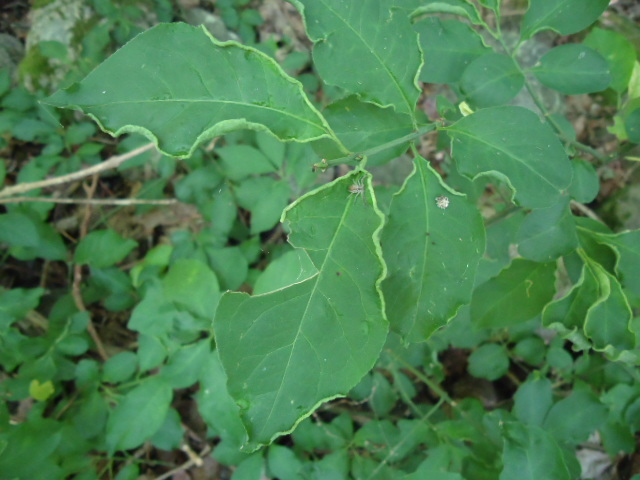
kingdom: Animalia
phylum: Arthropoda
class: Arachnida
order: Trombidiformes
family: Eriophyidae
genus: Stenacis
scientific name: Stenacis evonymi
